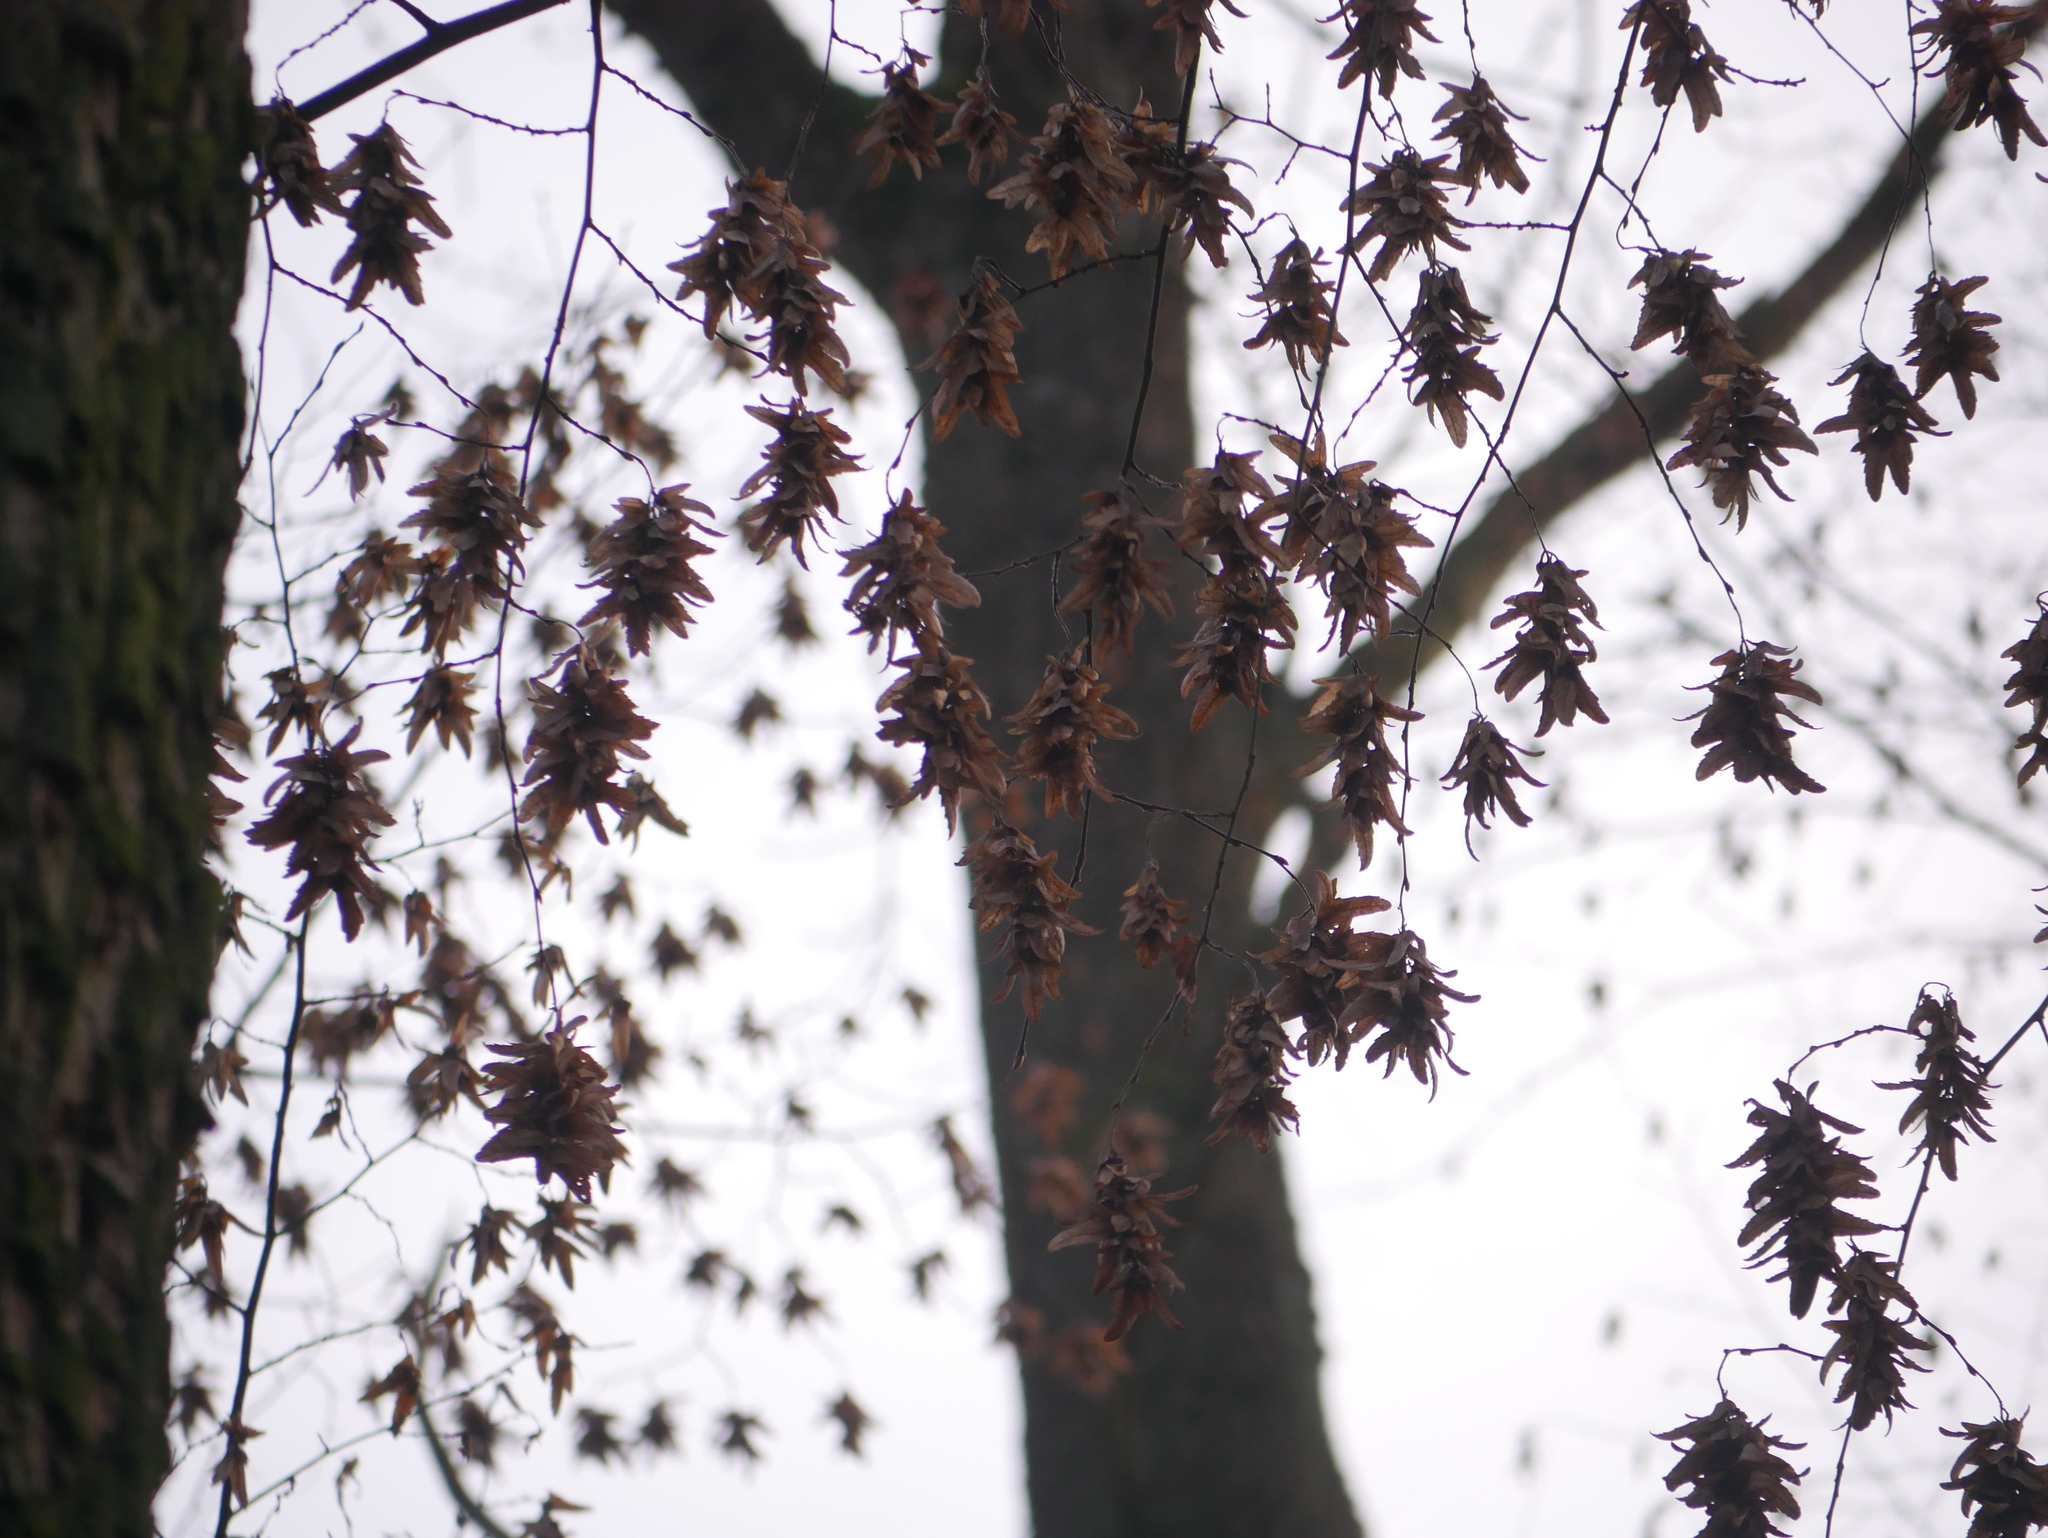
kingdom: Plantae
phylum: Tracheophyta
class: Magnoliopsida
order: Fagales
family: Betulaceae
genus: Carpinus
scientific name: Carpinus betulus
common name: Hornbeam
